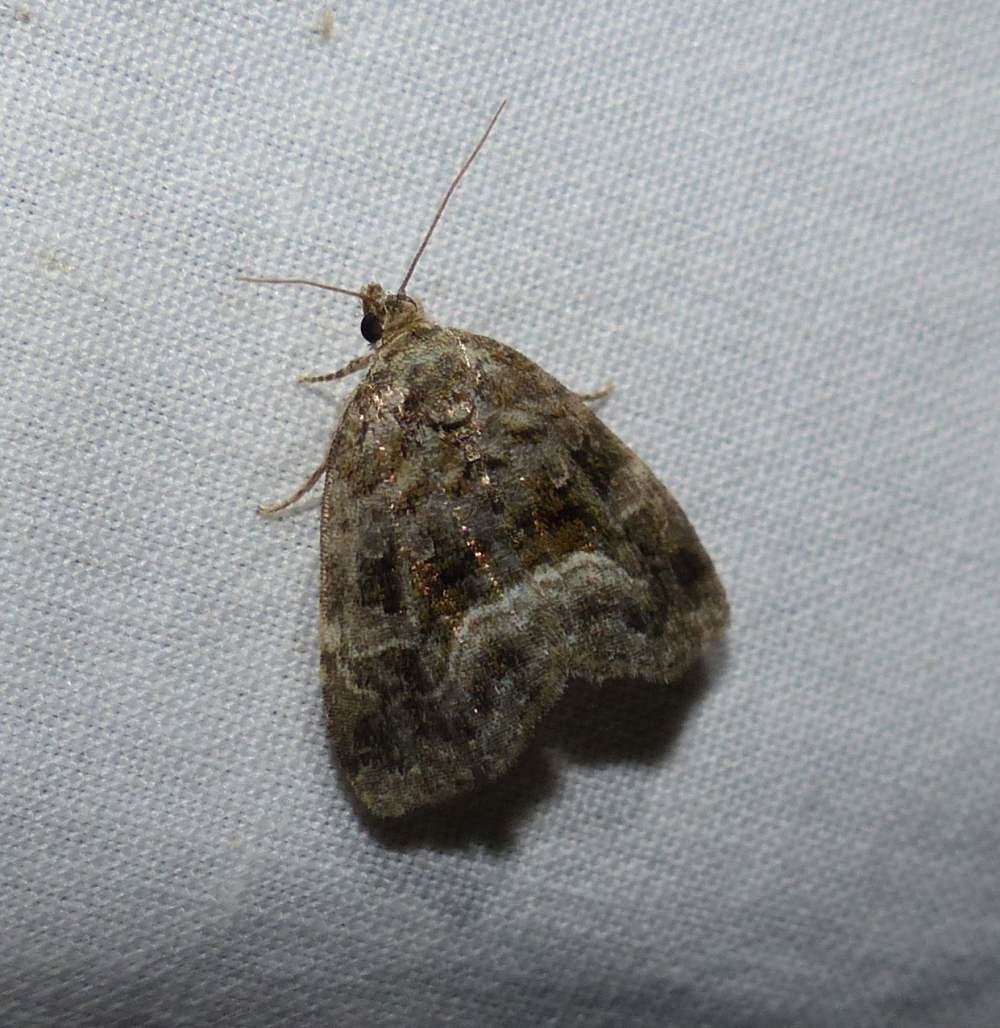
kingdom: Animalia
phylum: Arthropoda
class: Insecta
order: Lepidoptera
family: Noctuidae
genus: Protodeltote
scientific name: Protodeltote muscosula
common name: Large mossy glyph
